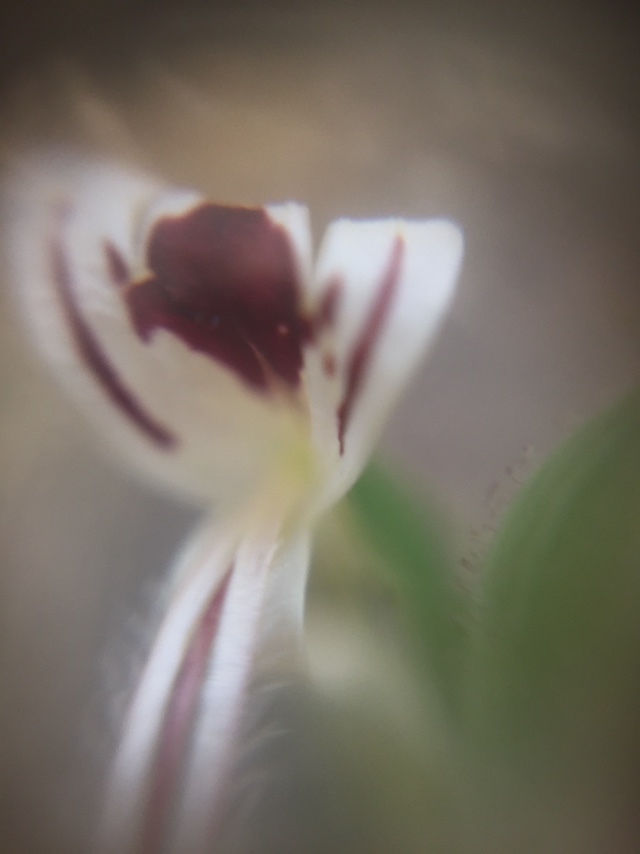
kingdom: Plantae
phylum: Tracheophyta
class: Magnoliopsida
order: Lamiales
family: Acanthaceae
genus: Andrographis
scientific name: Andrographis paniculata
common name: Green chireta
